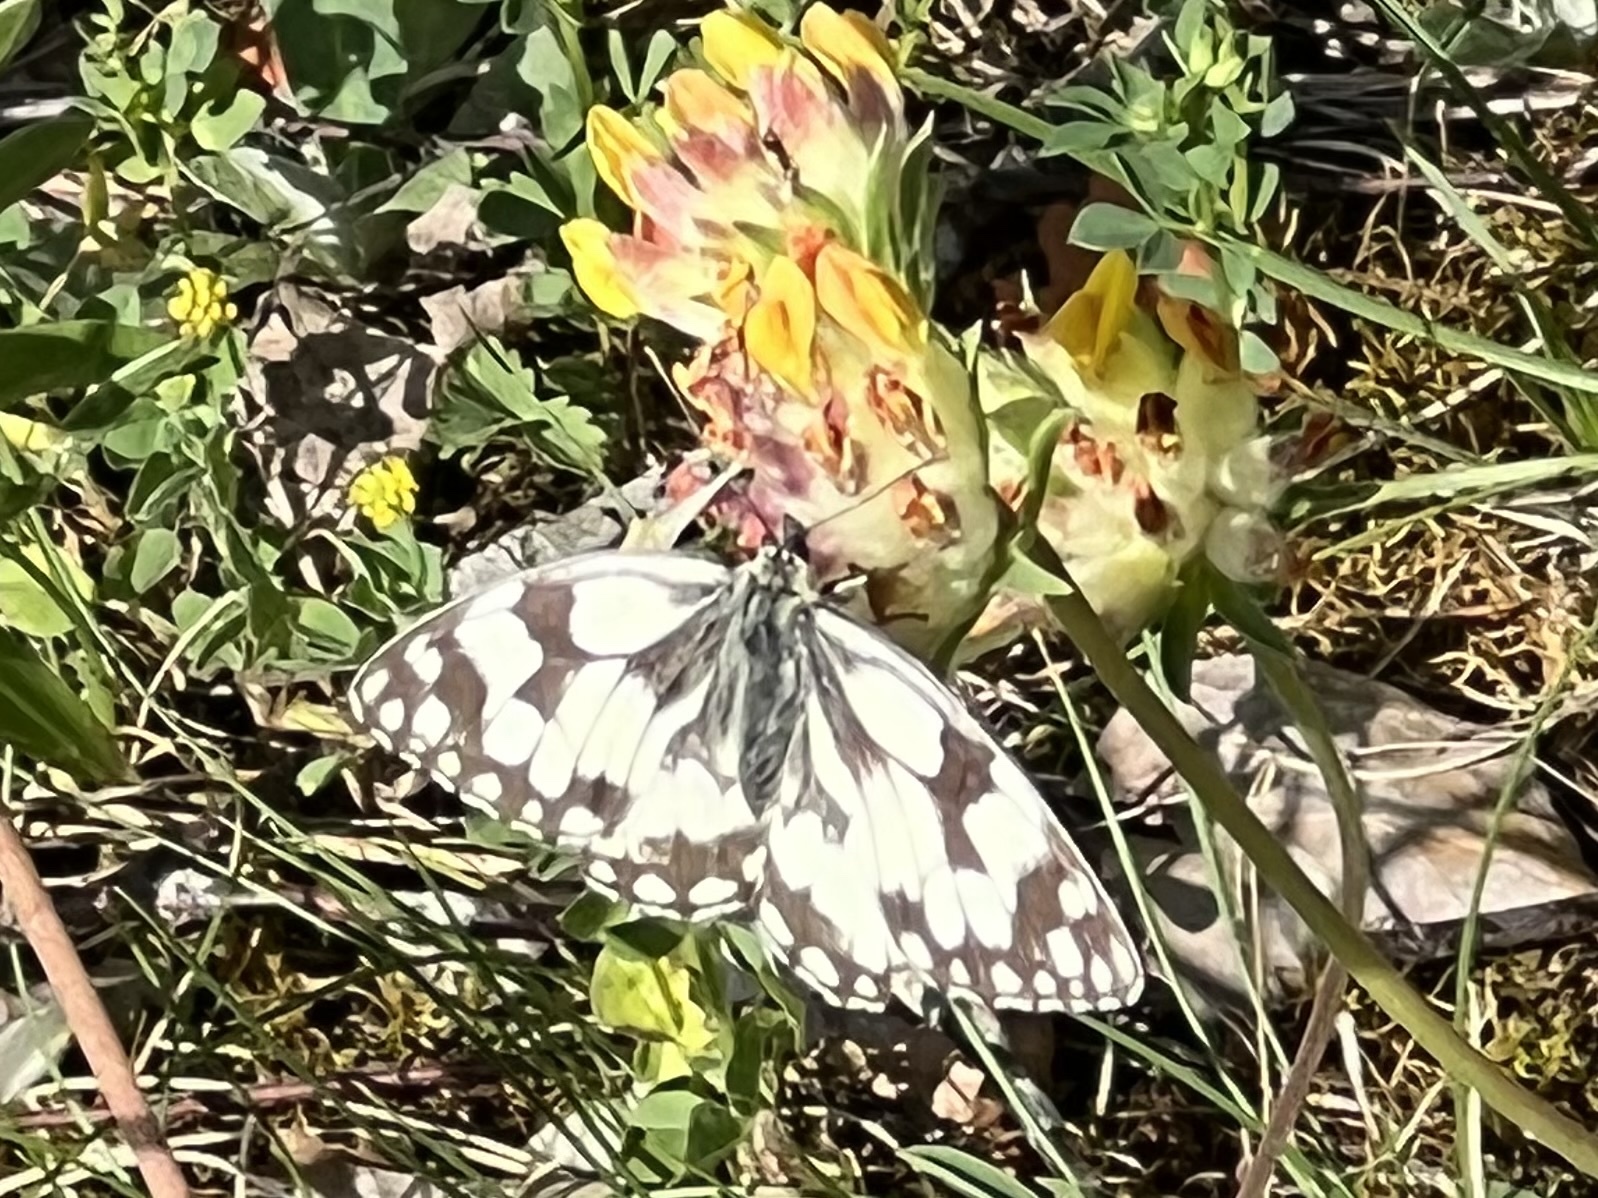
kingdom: Animalia
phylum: Arthropoda
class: Insecta
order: Lepidoptera
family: Nymphalidae
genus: Melanargia
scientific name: Melanargia galathea
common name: Marbled white
